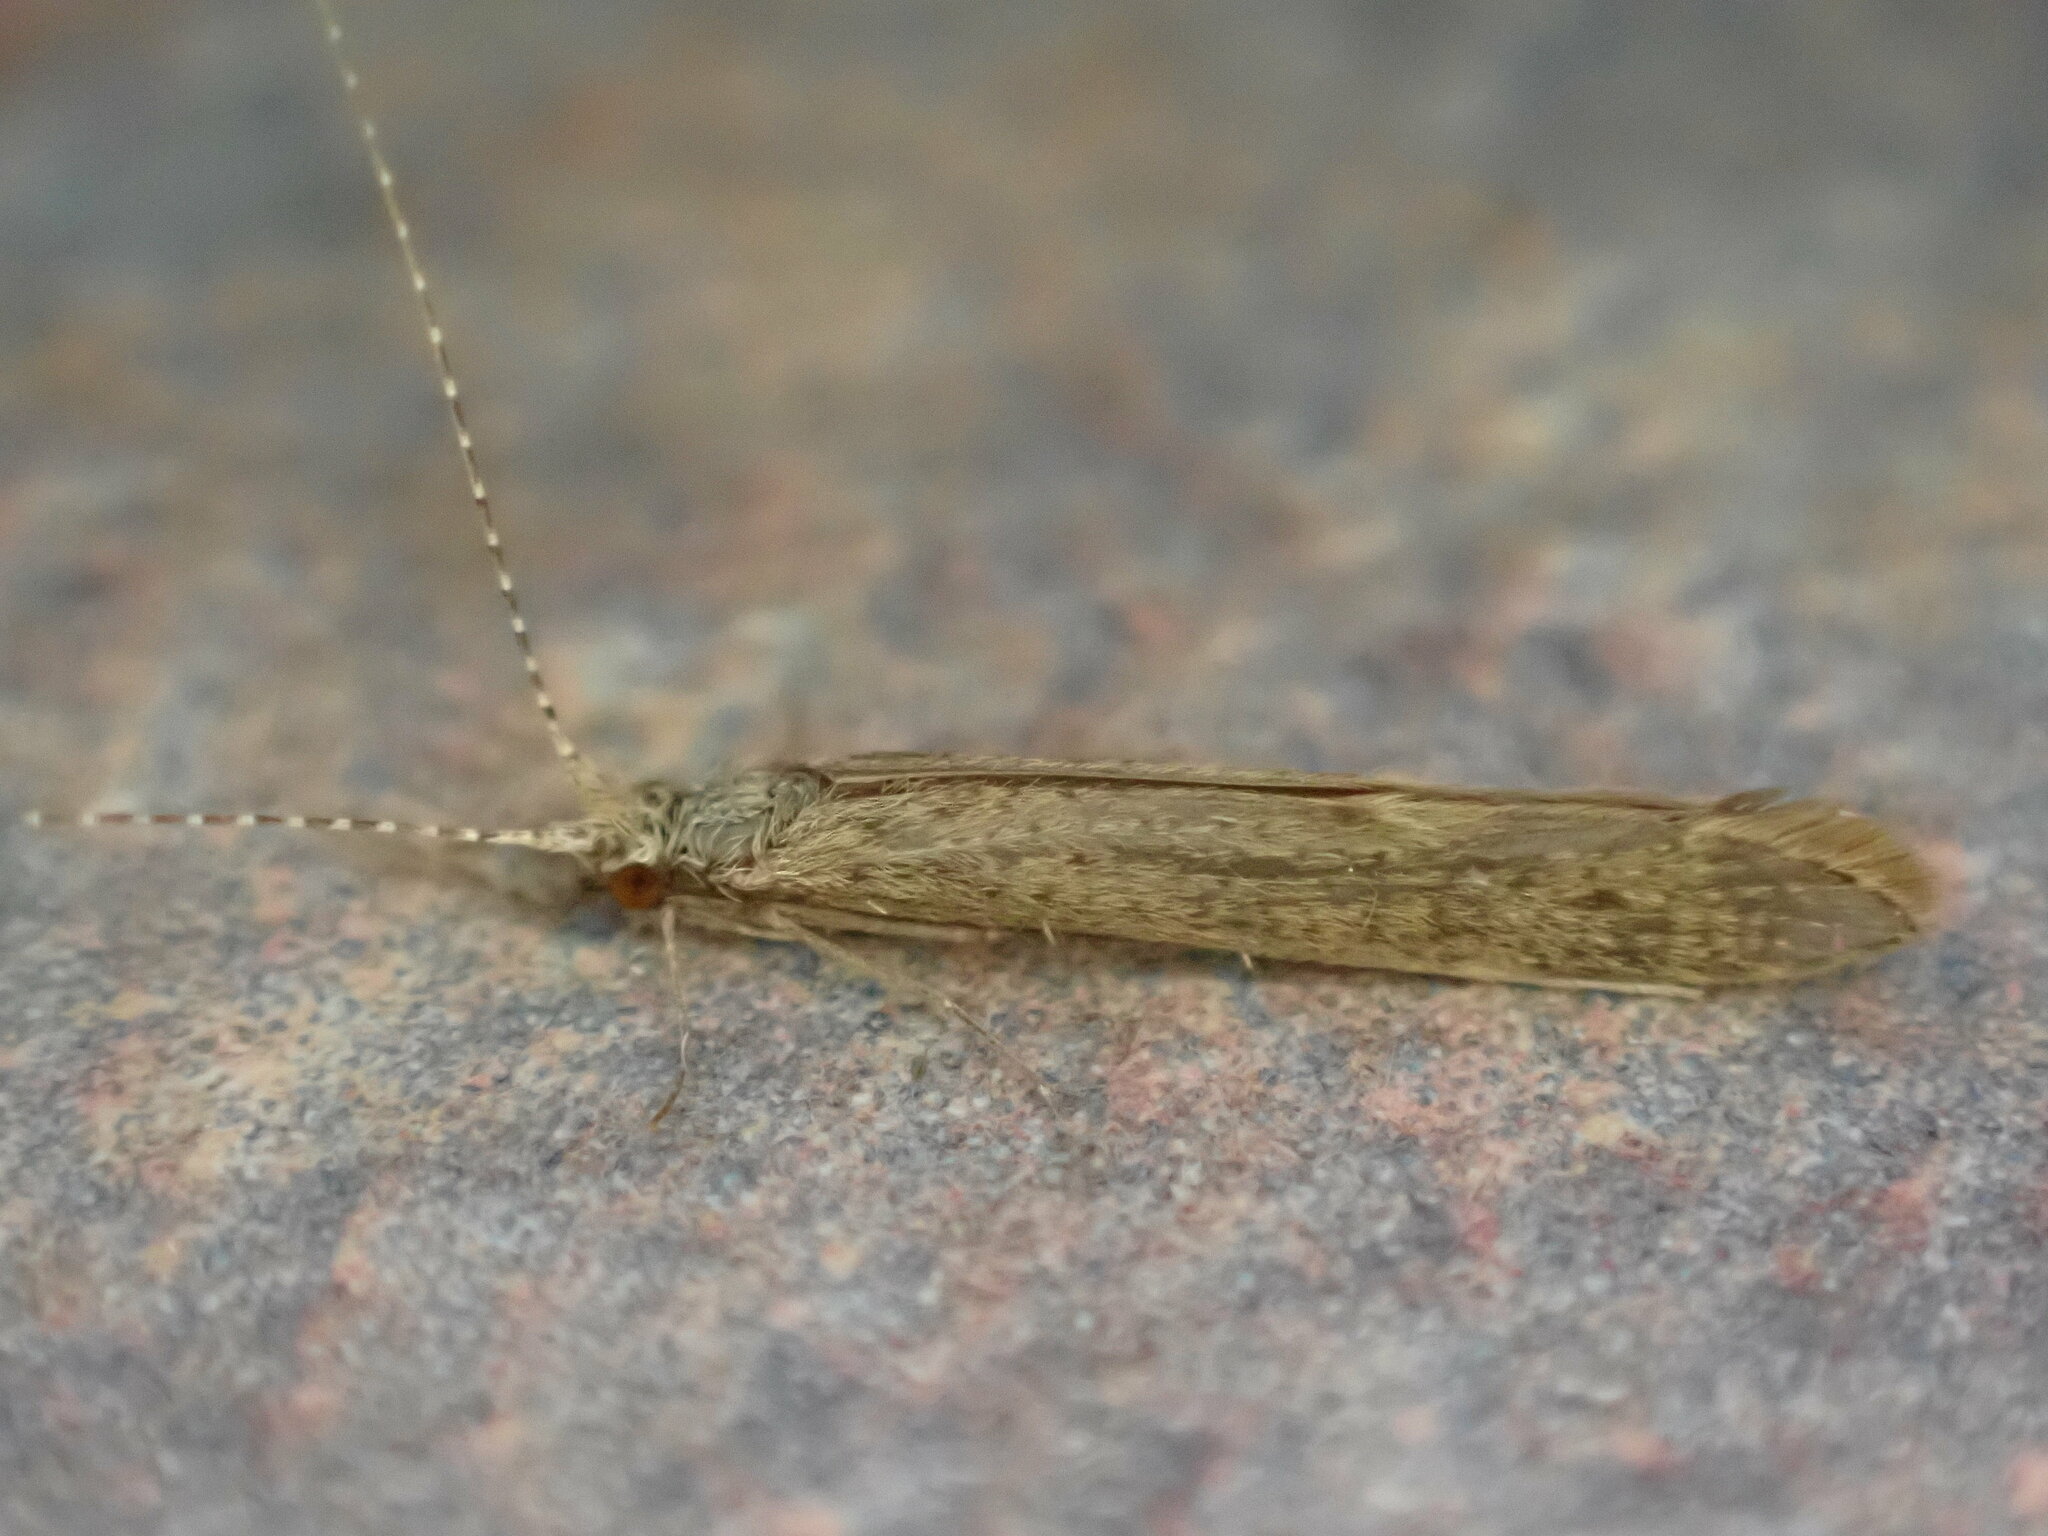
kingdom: Animalia
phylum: Arthropoda
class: Insecta
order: Trichoptera
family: Leptoceridae
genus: Leptocerus
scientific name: Leptocerus tineiformis
